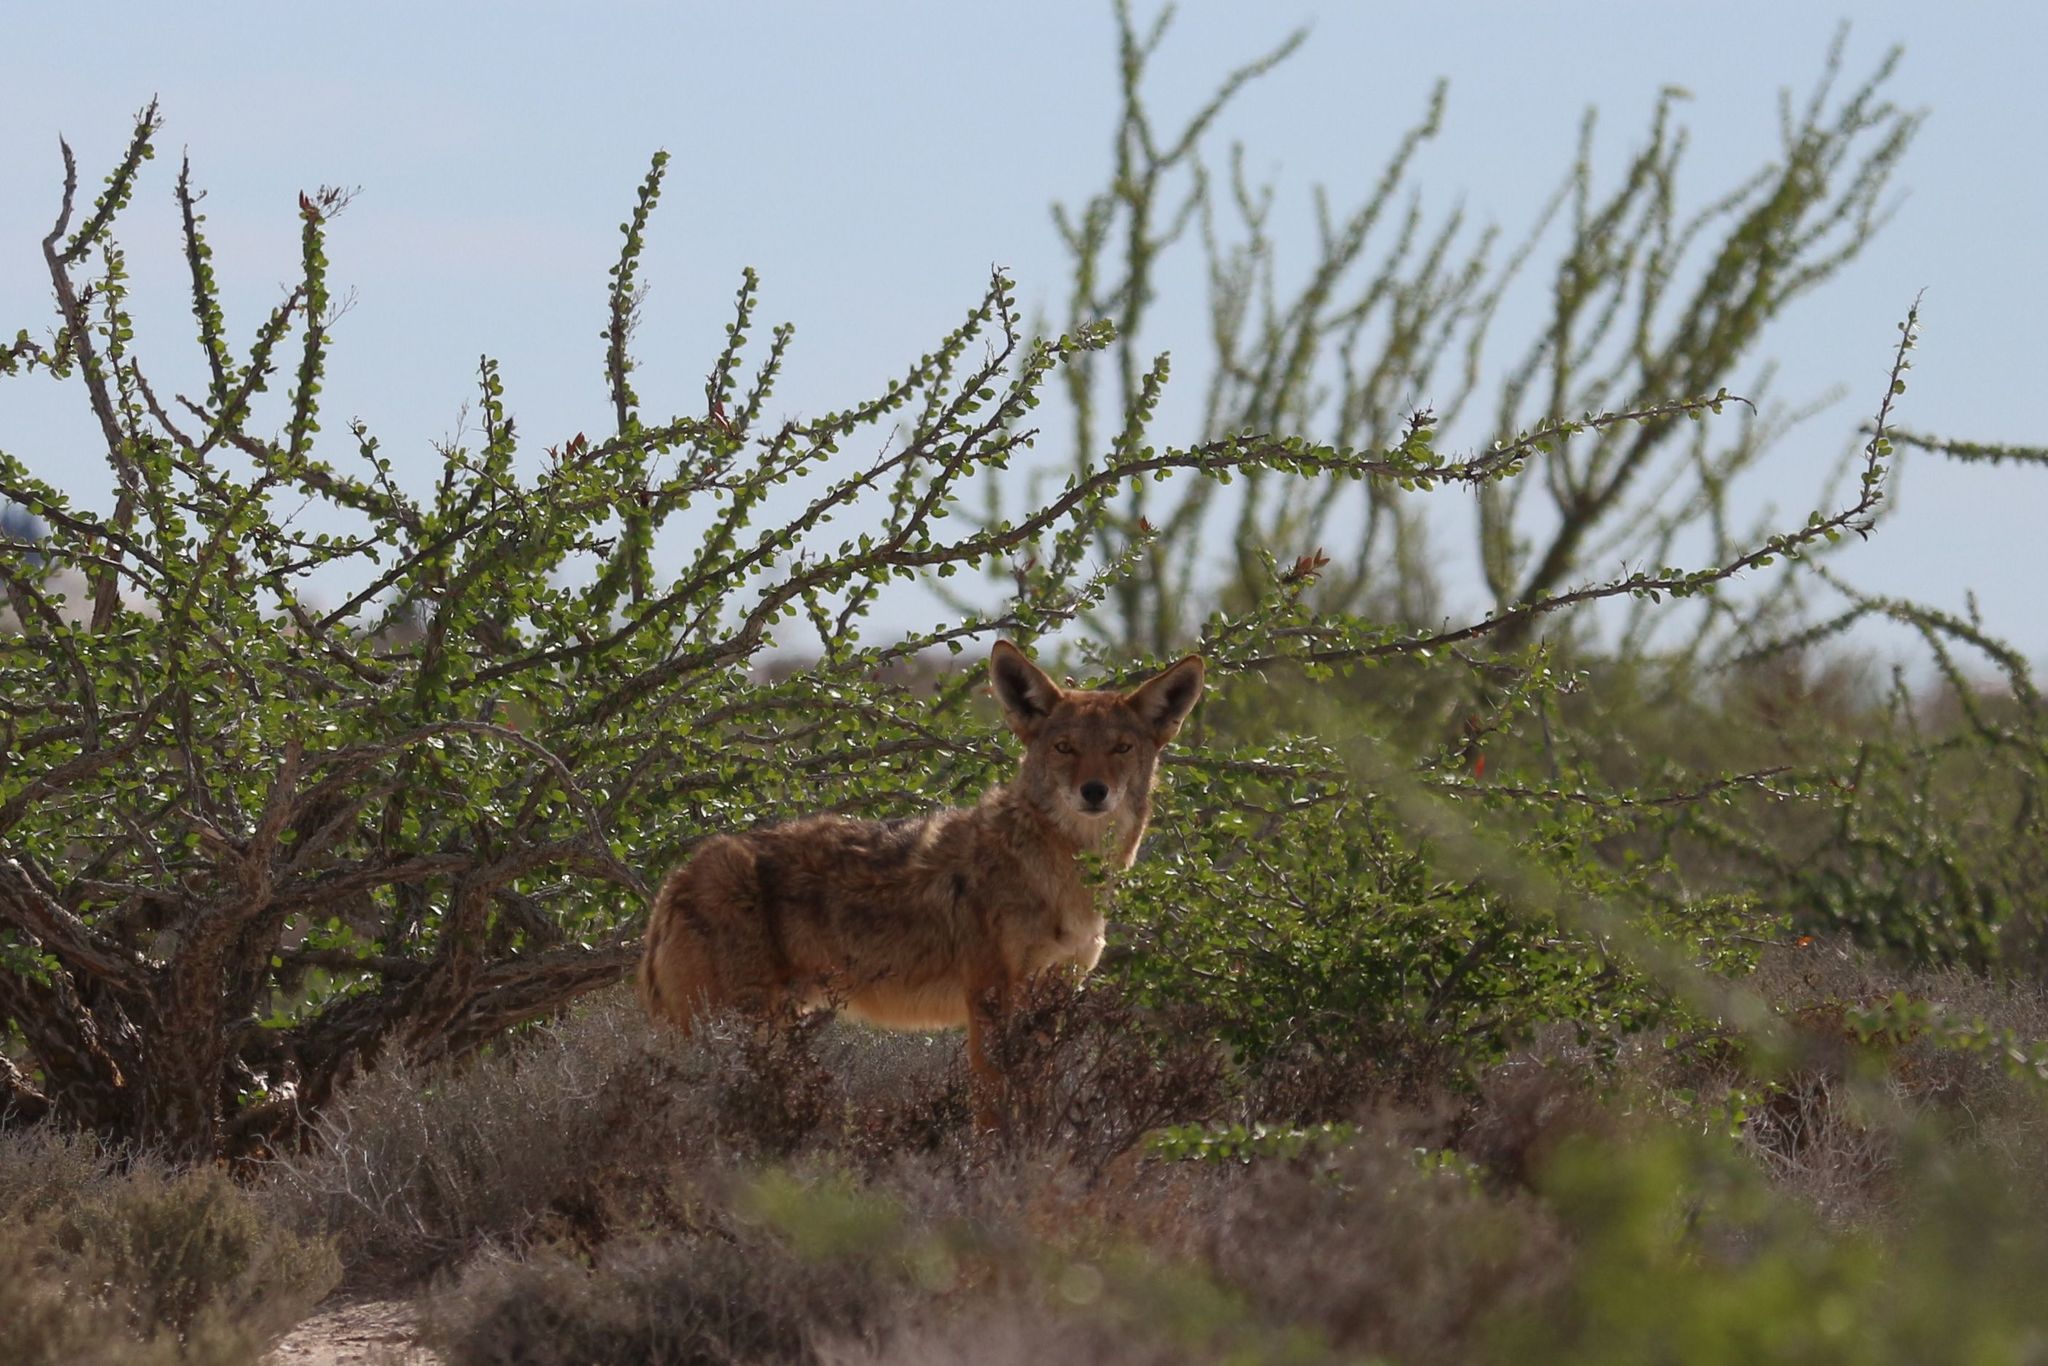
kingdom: Animalia
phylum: Chordata
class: Mammalia
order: Carnivora
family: Canidae
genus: Canis
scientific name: Canis latrans
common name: Coyote
